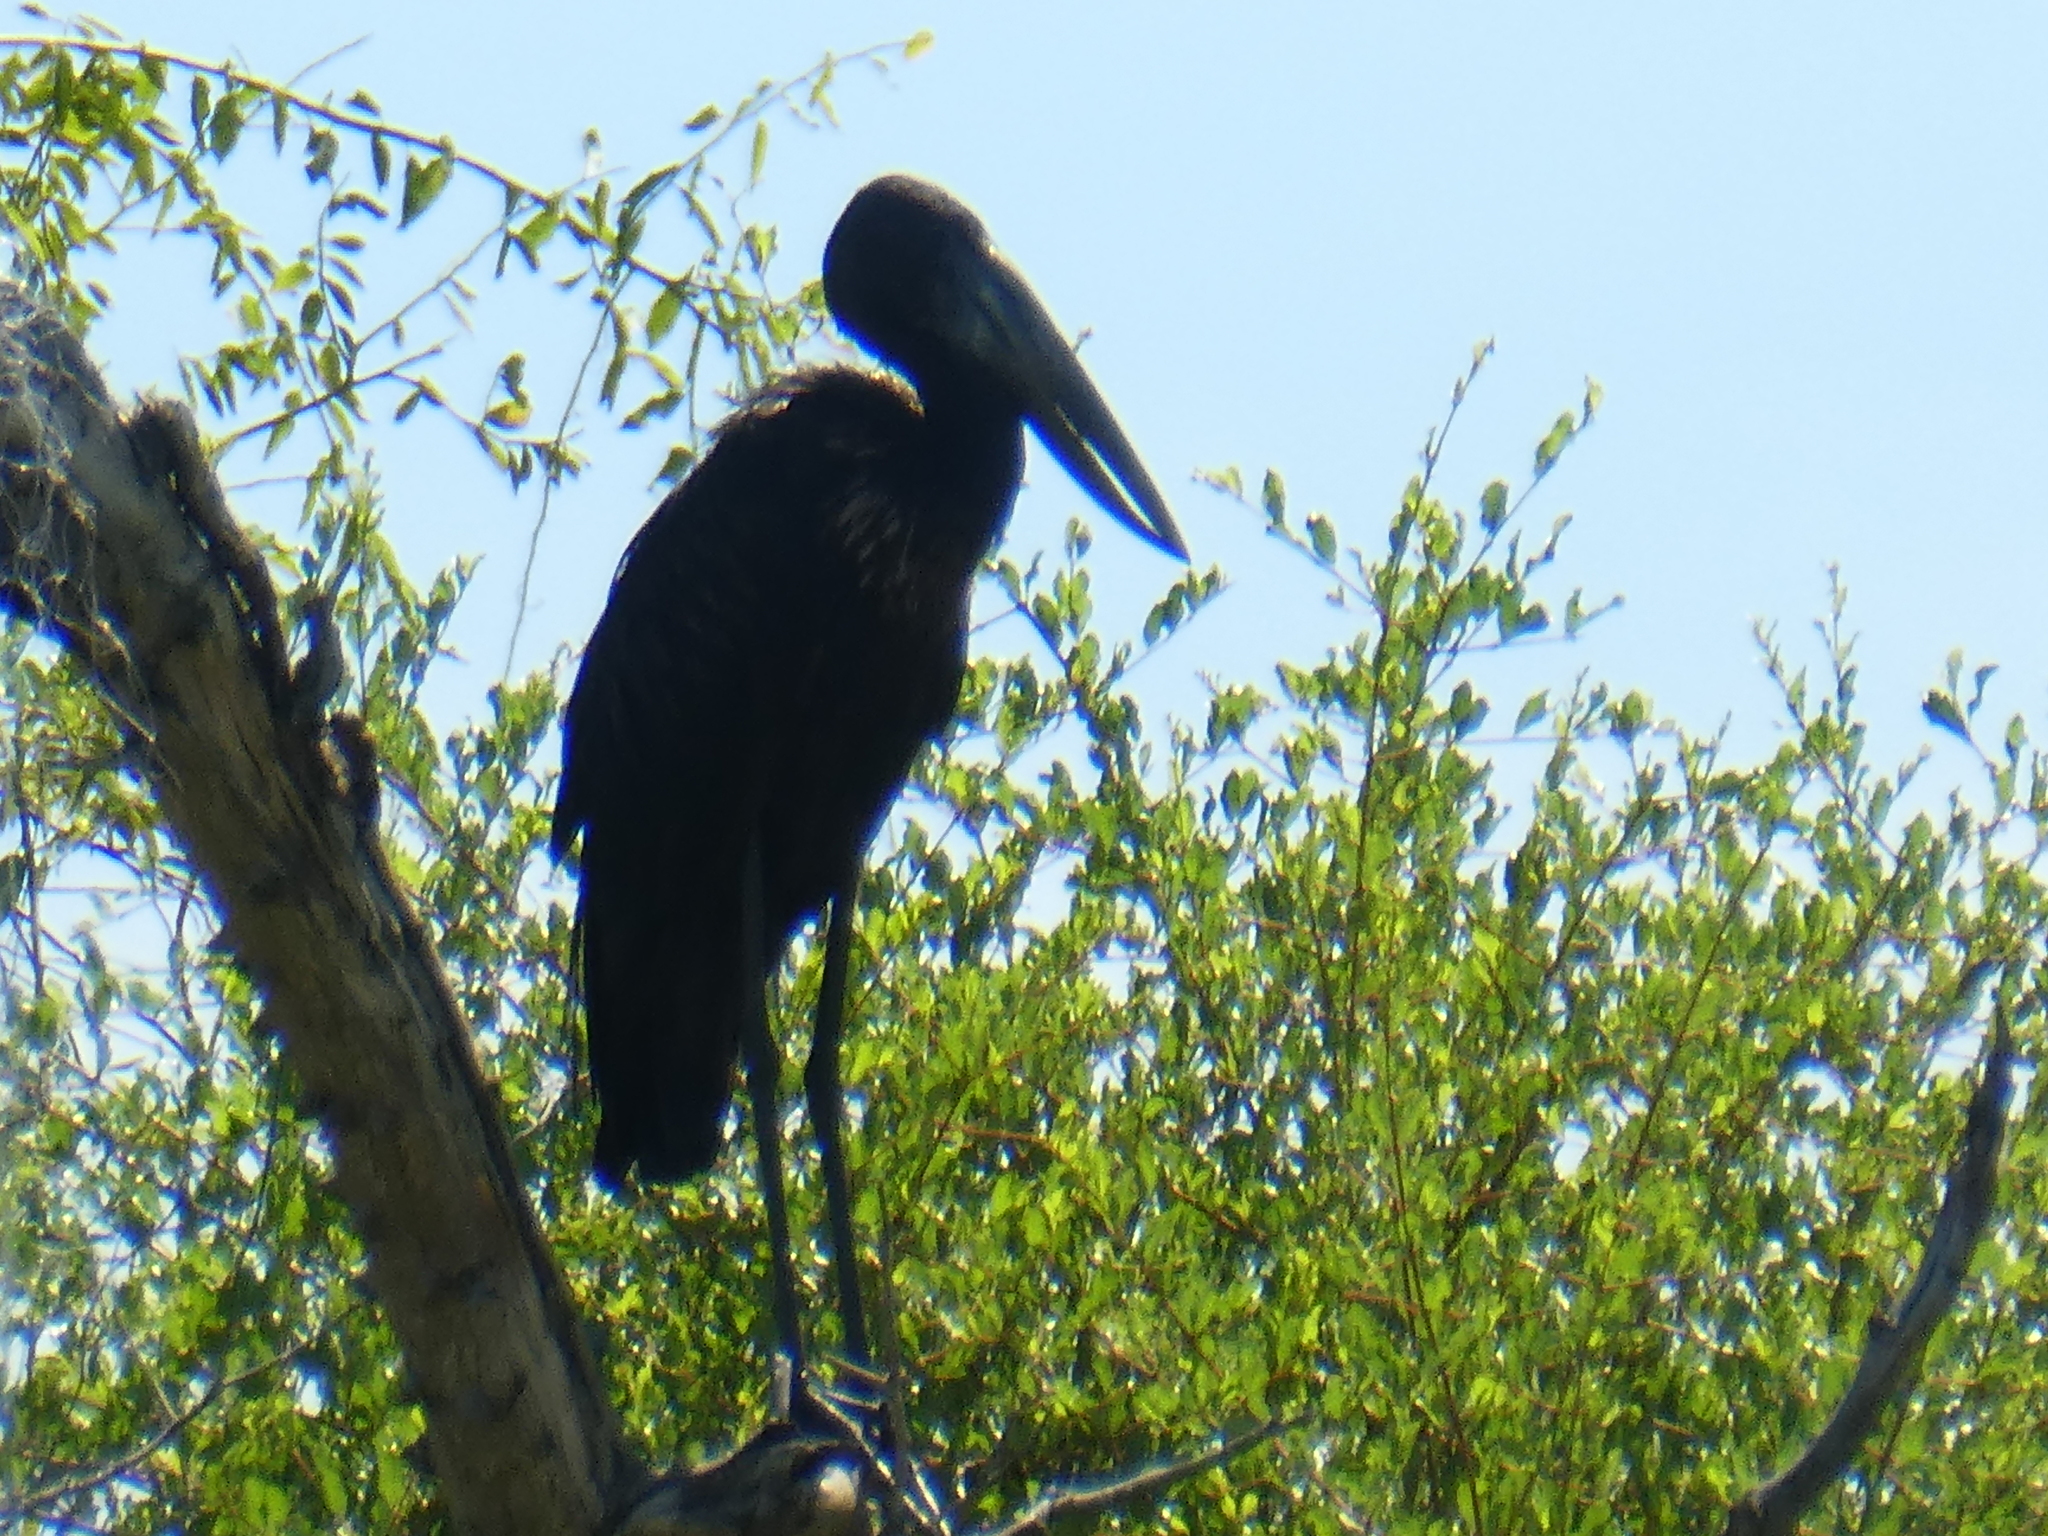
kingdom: Animalia
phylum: Chordata
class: Aves
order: Ciconiiformes
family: Ciconiidae
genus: Anastomus
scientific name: Anastomus lamelligerus
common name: African openbill
